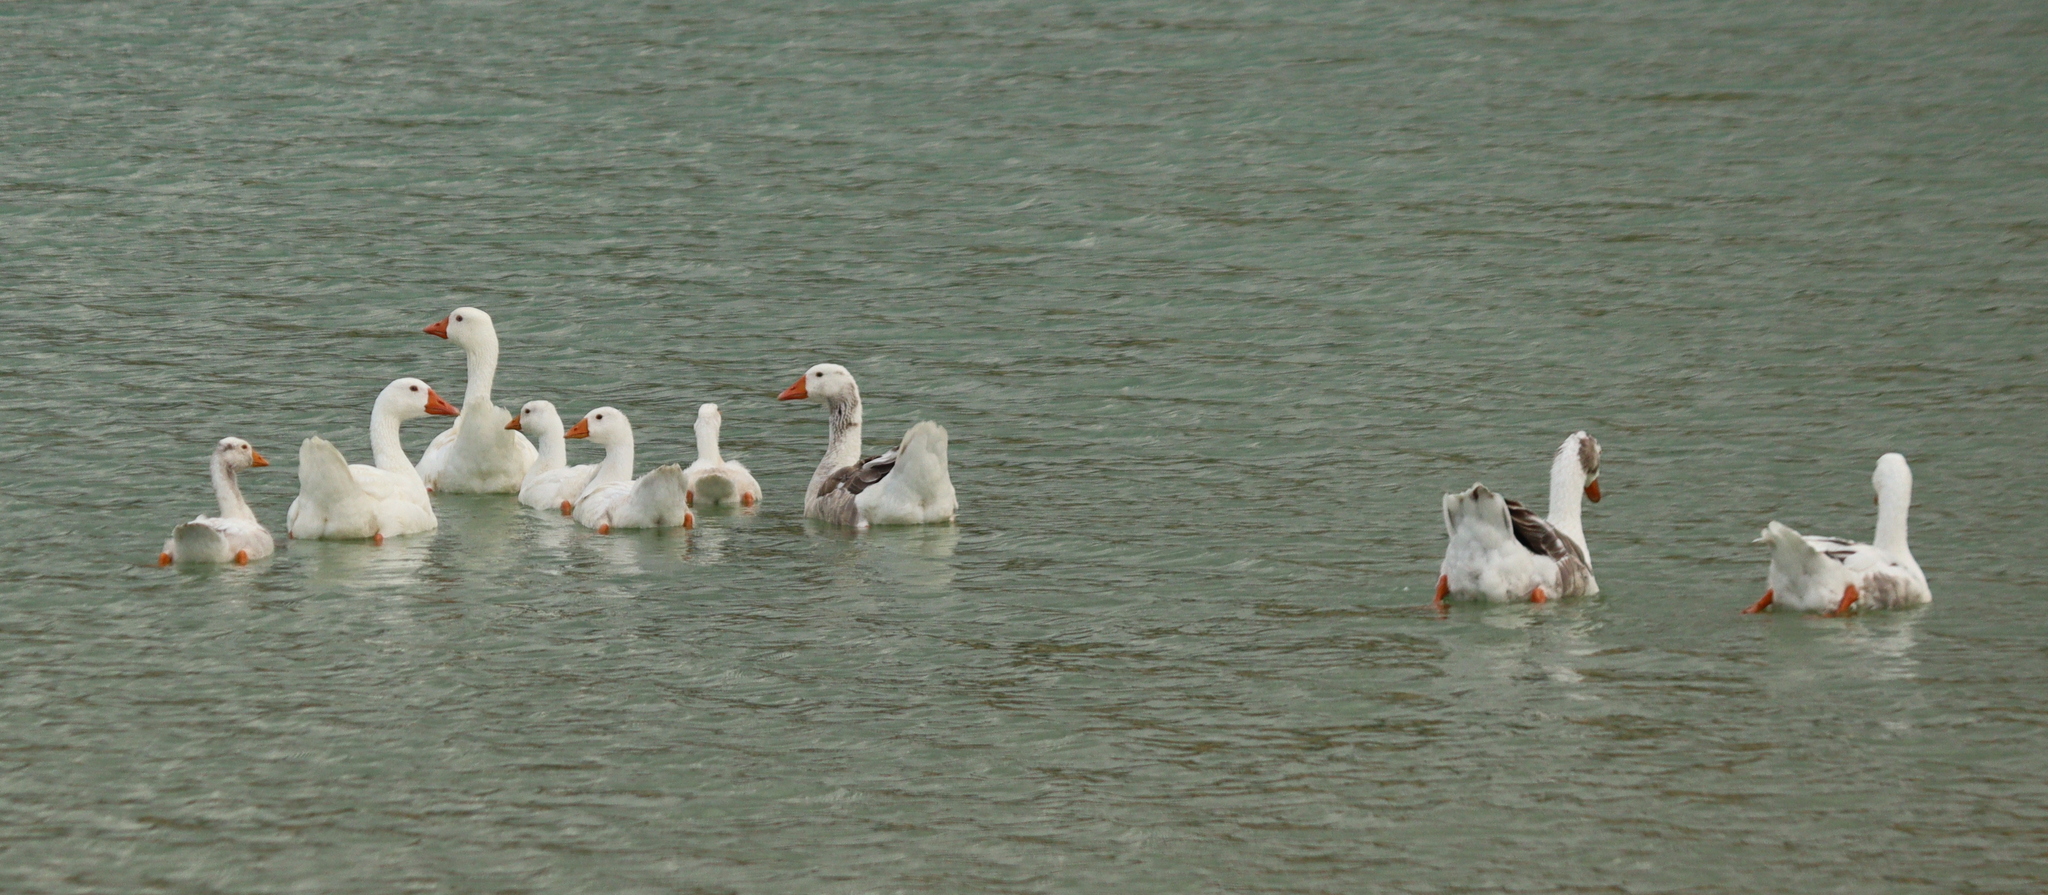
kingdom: Animalia
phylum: Chordata
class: Aves
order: Anseriformes
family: Anatidae
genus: Anser
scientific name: Anser anser
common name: Greylag goose
